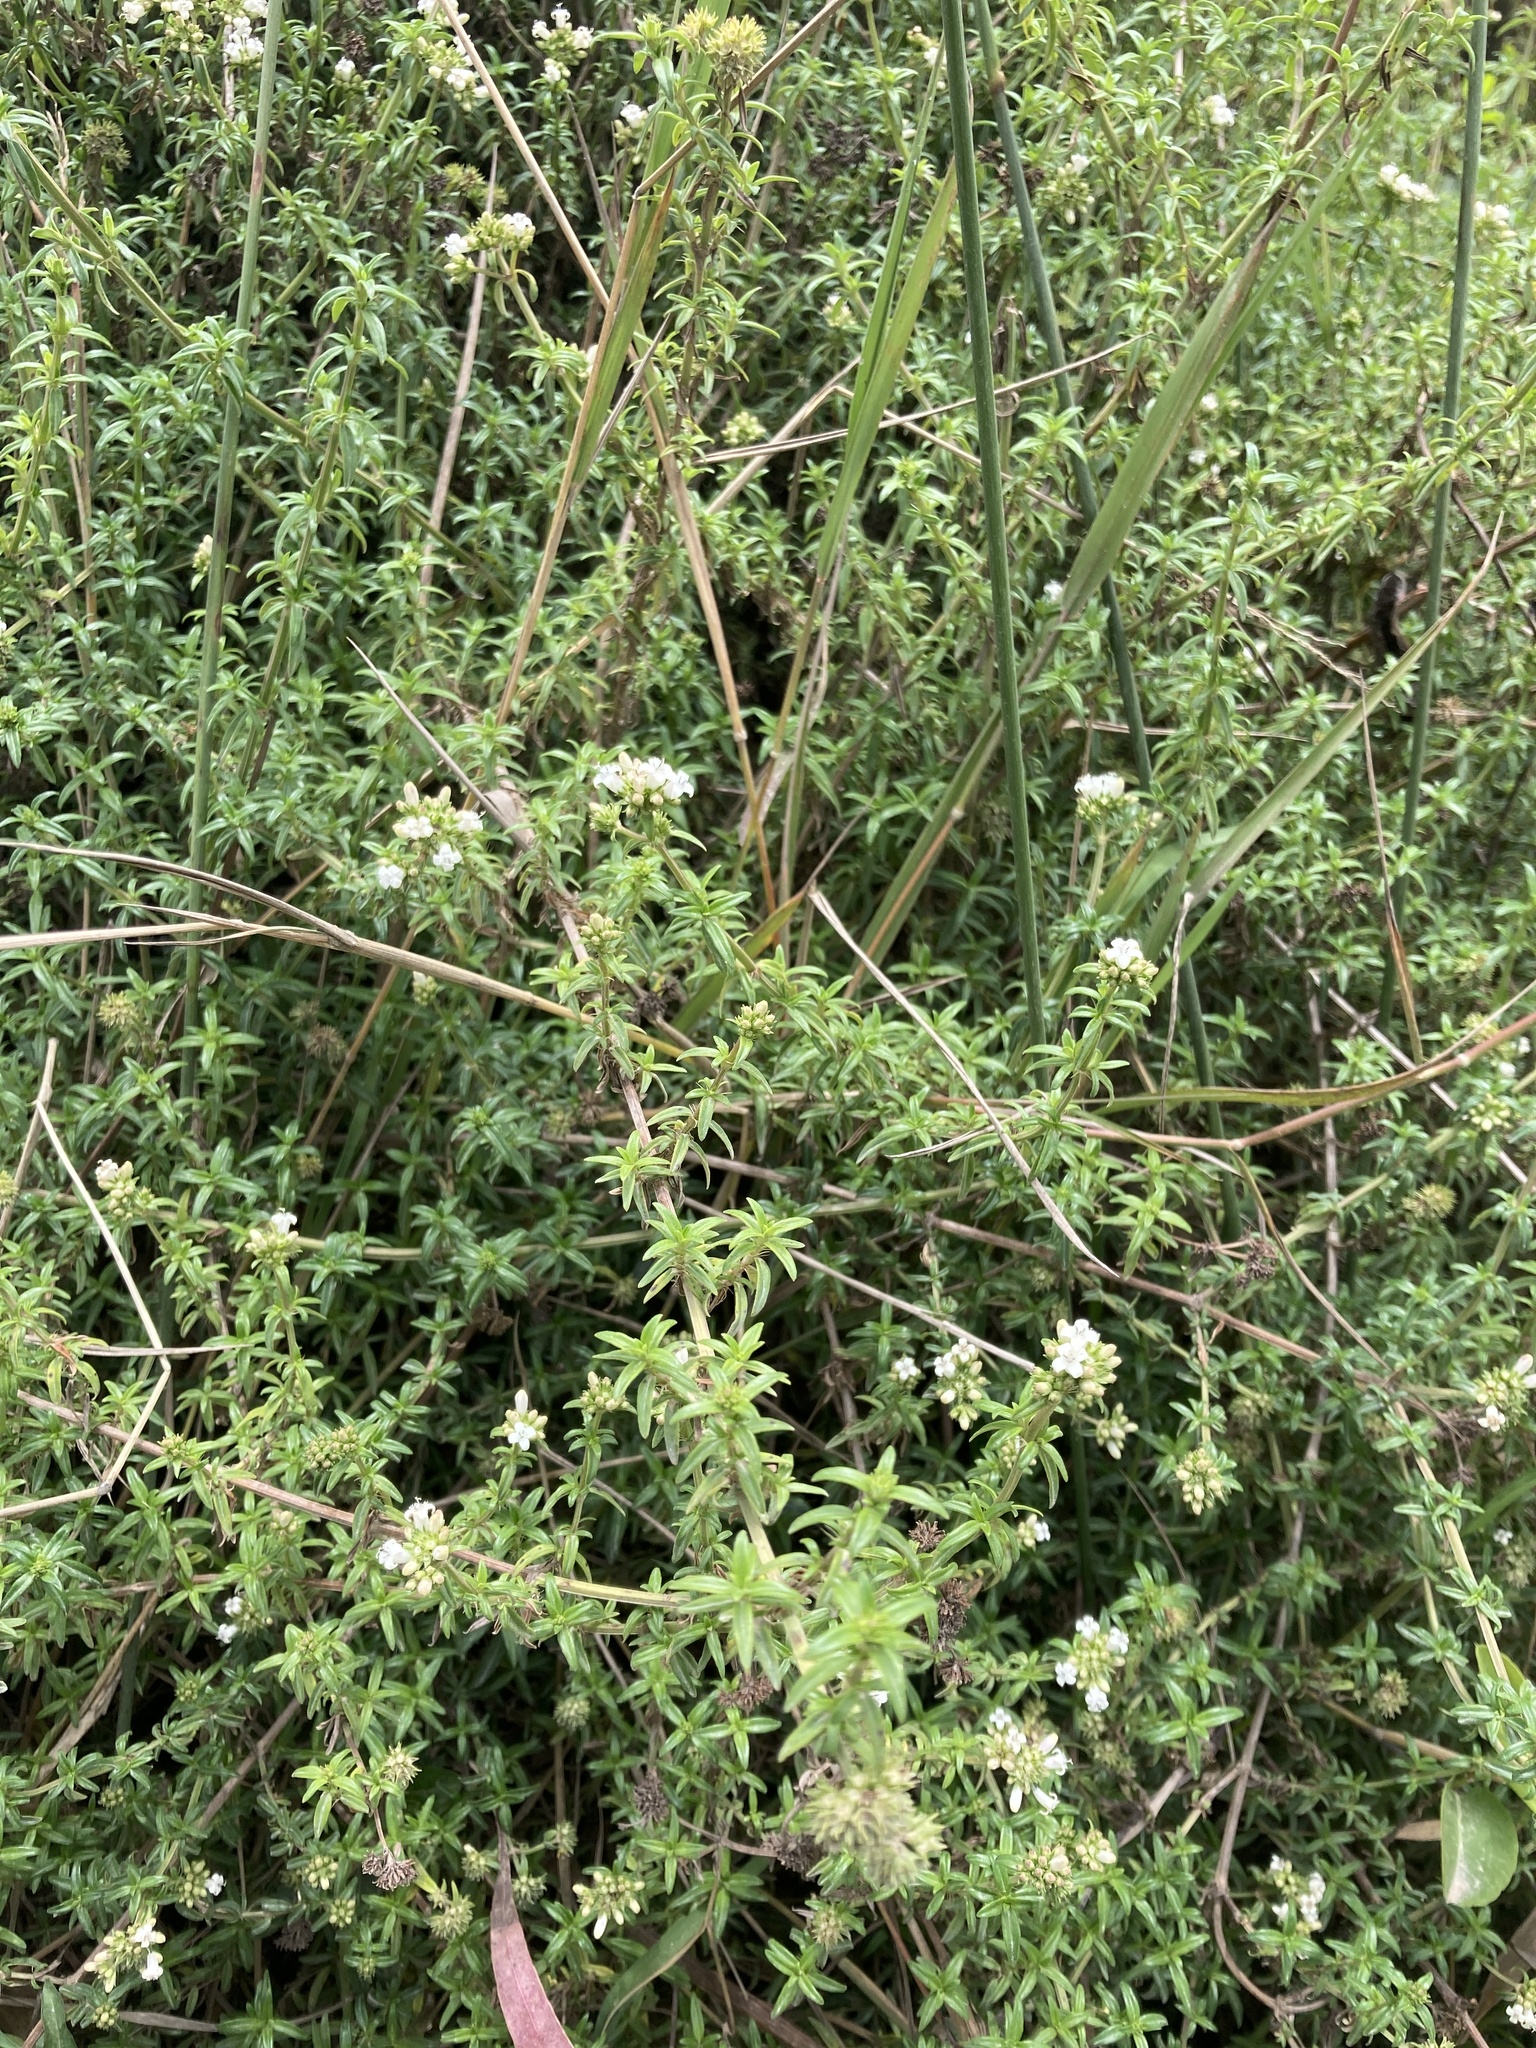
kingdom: Plantae
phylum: Tracheophyta
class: Magnoliopsida
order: Gentianales
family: Rubiaceae
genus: Galianthe
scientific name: Galianthe bogotensis
